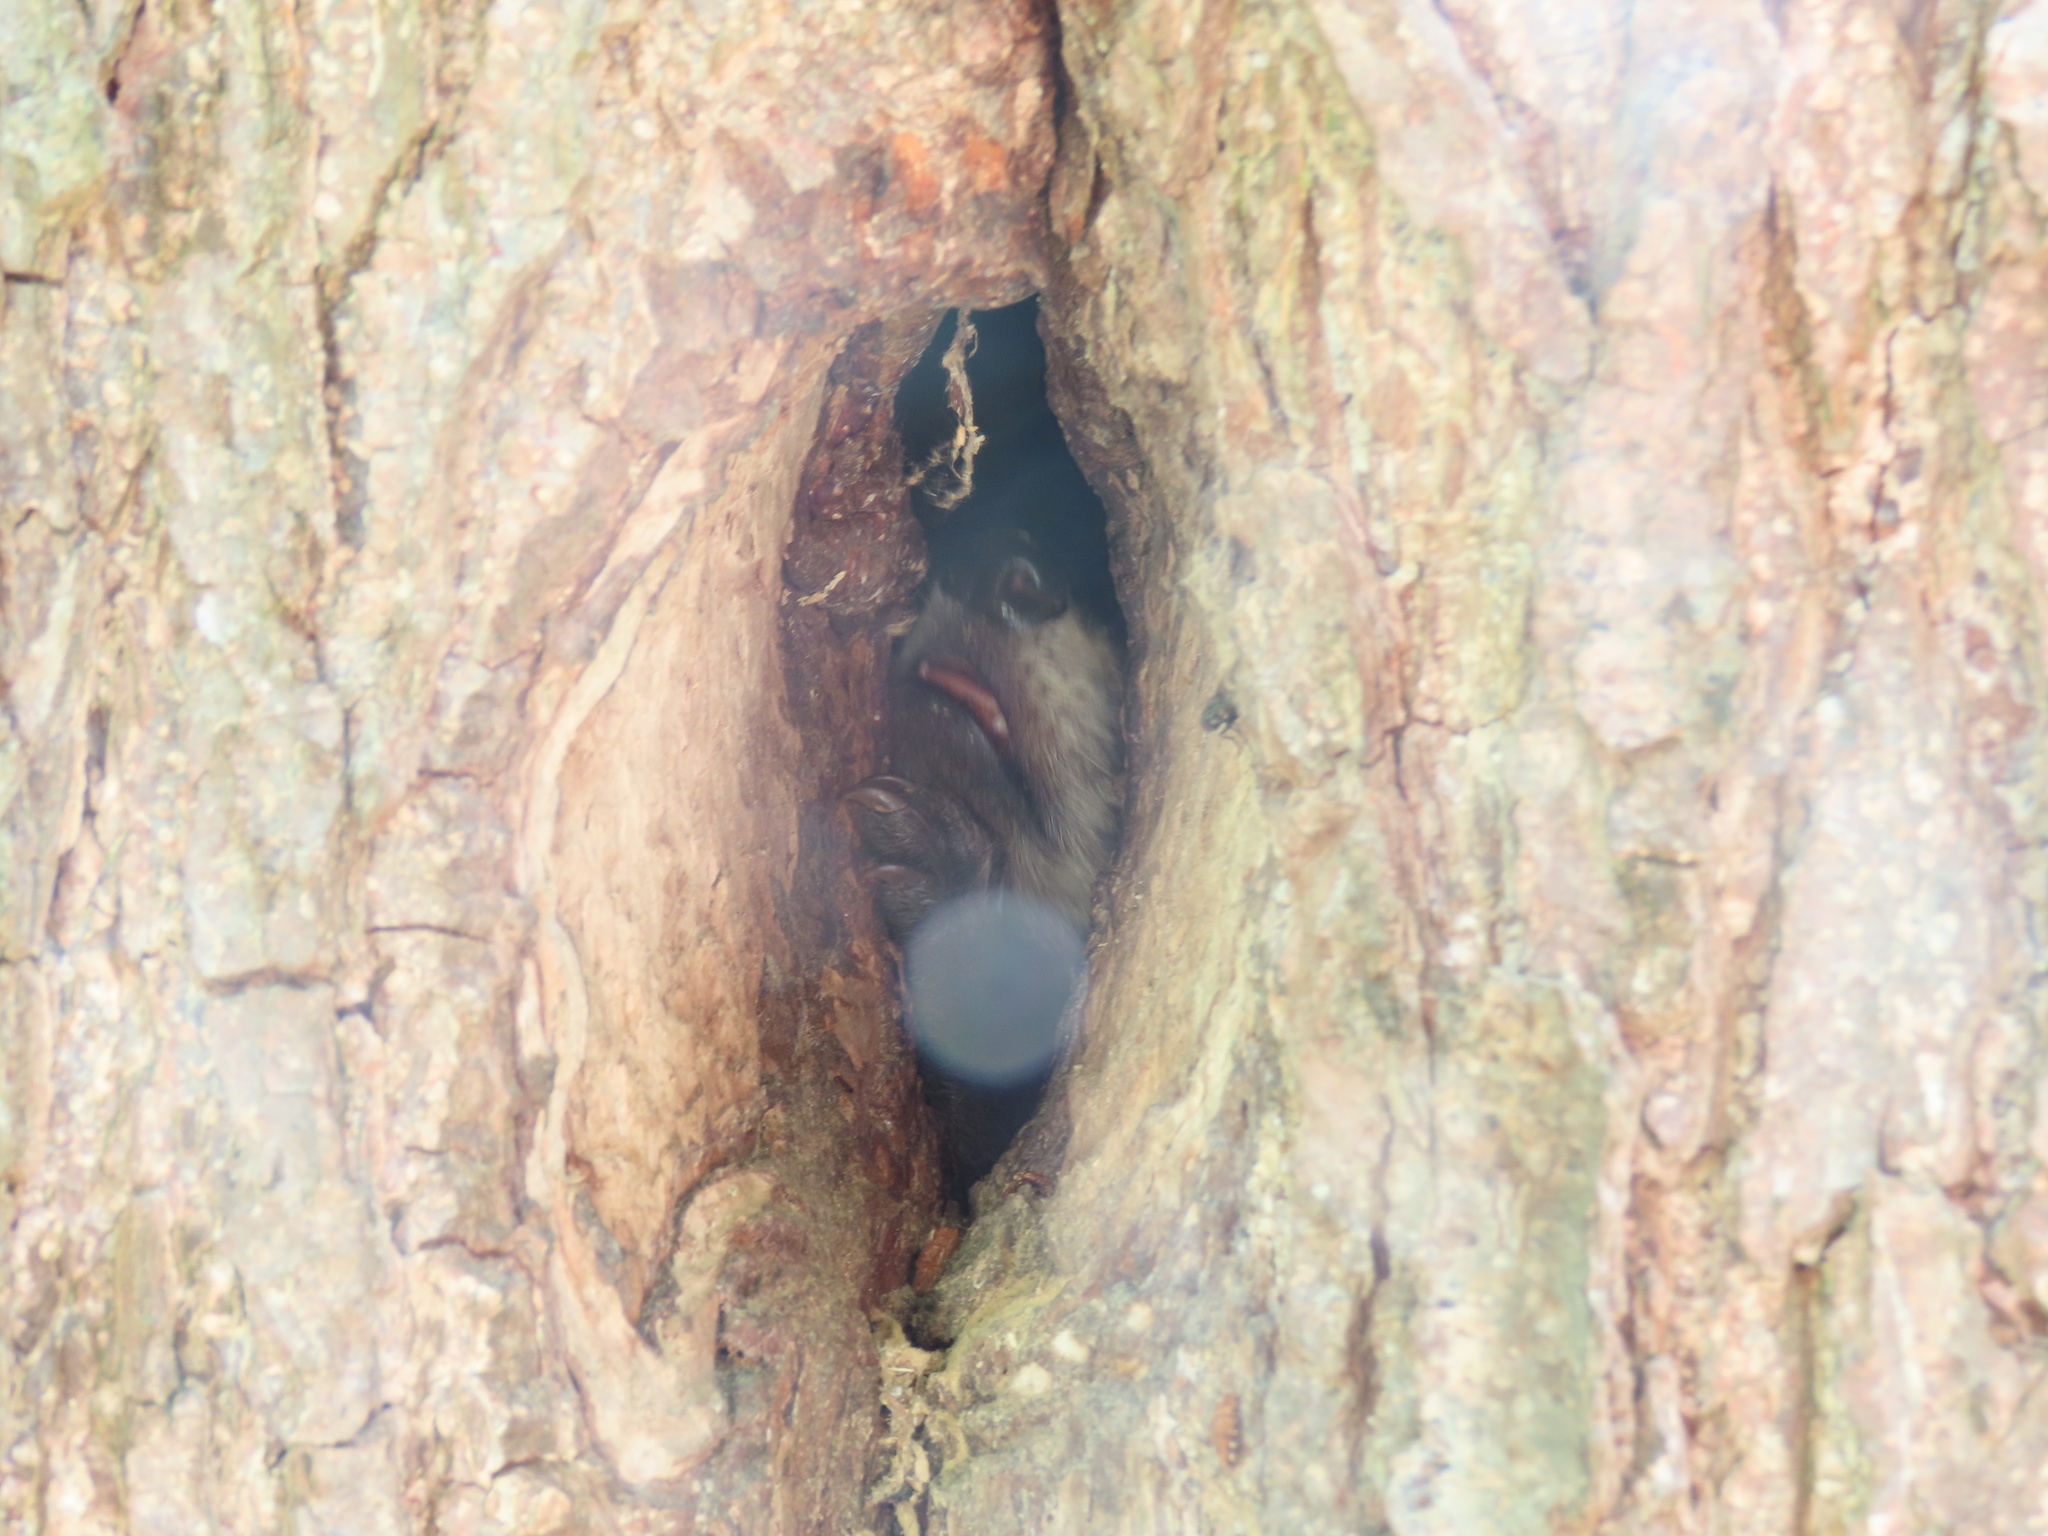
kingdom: Animalia
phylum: Chordata
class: Mammalia
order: Carnivora
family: Procyonidae
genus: Procyon
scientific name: Procyon lotor
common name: Raccoon
